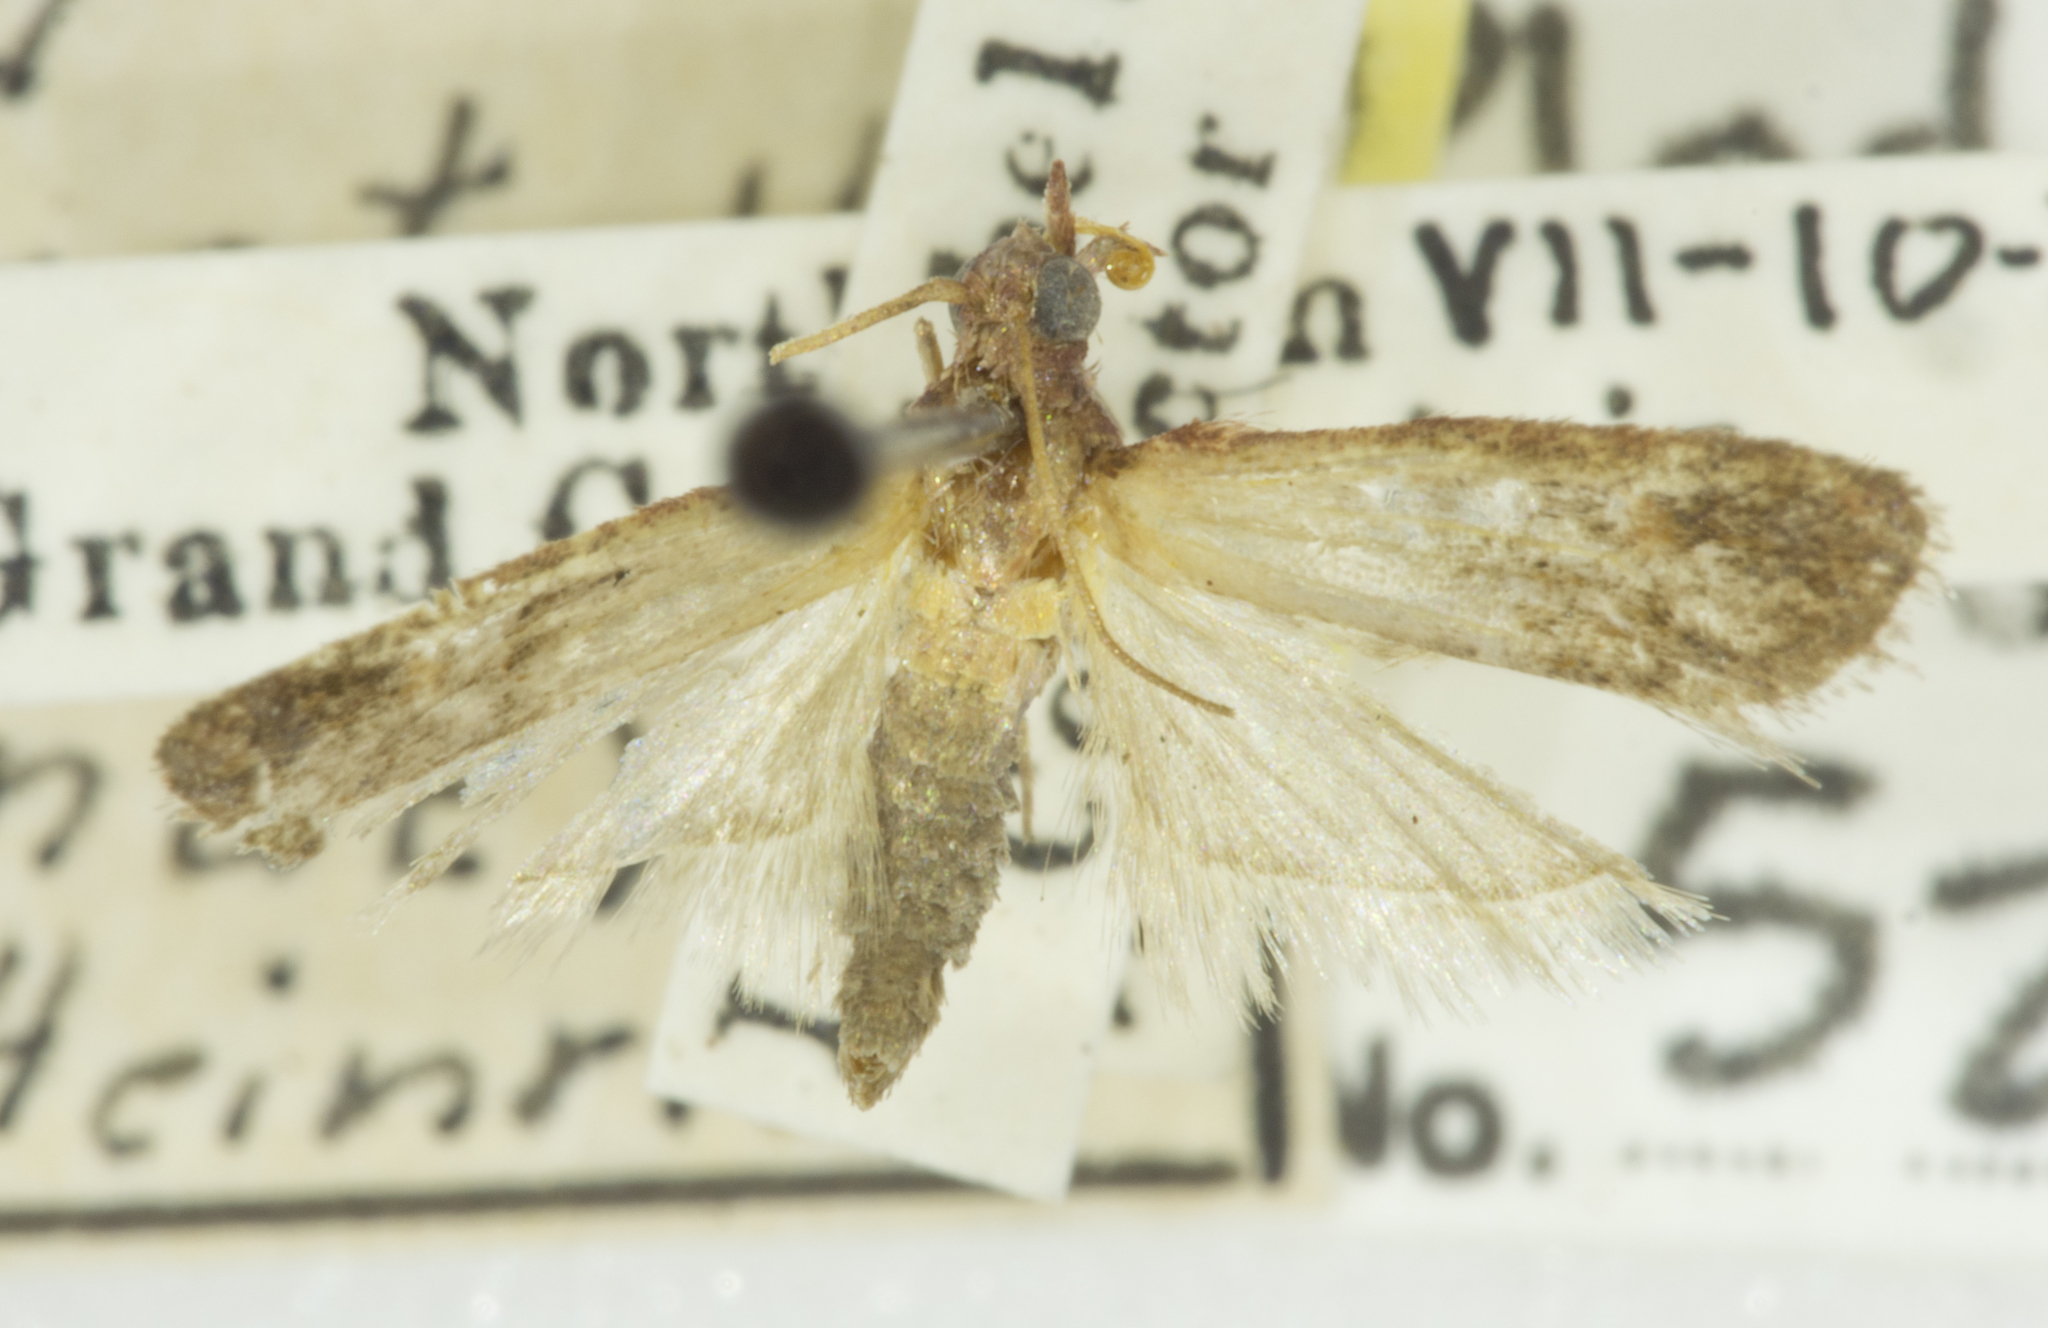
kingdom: Animalia
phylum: Arthropoda
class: Insecta
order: Lepidoptera
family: Pyralidae
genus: Plodia
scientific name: Plodia interpunctella
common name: Indian meal moth
